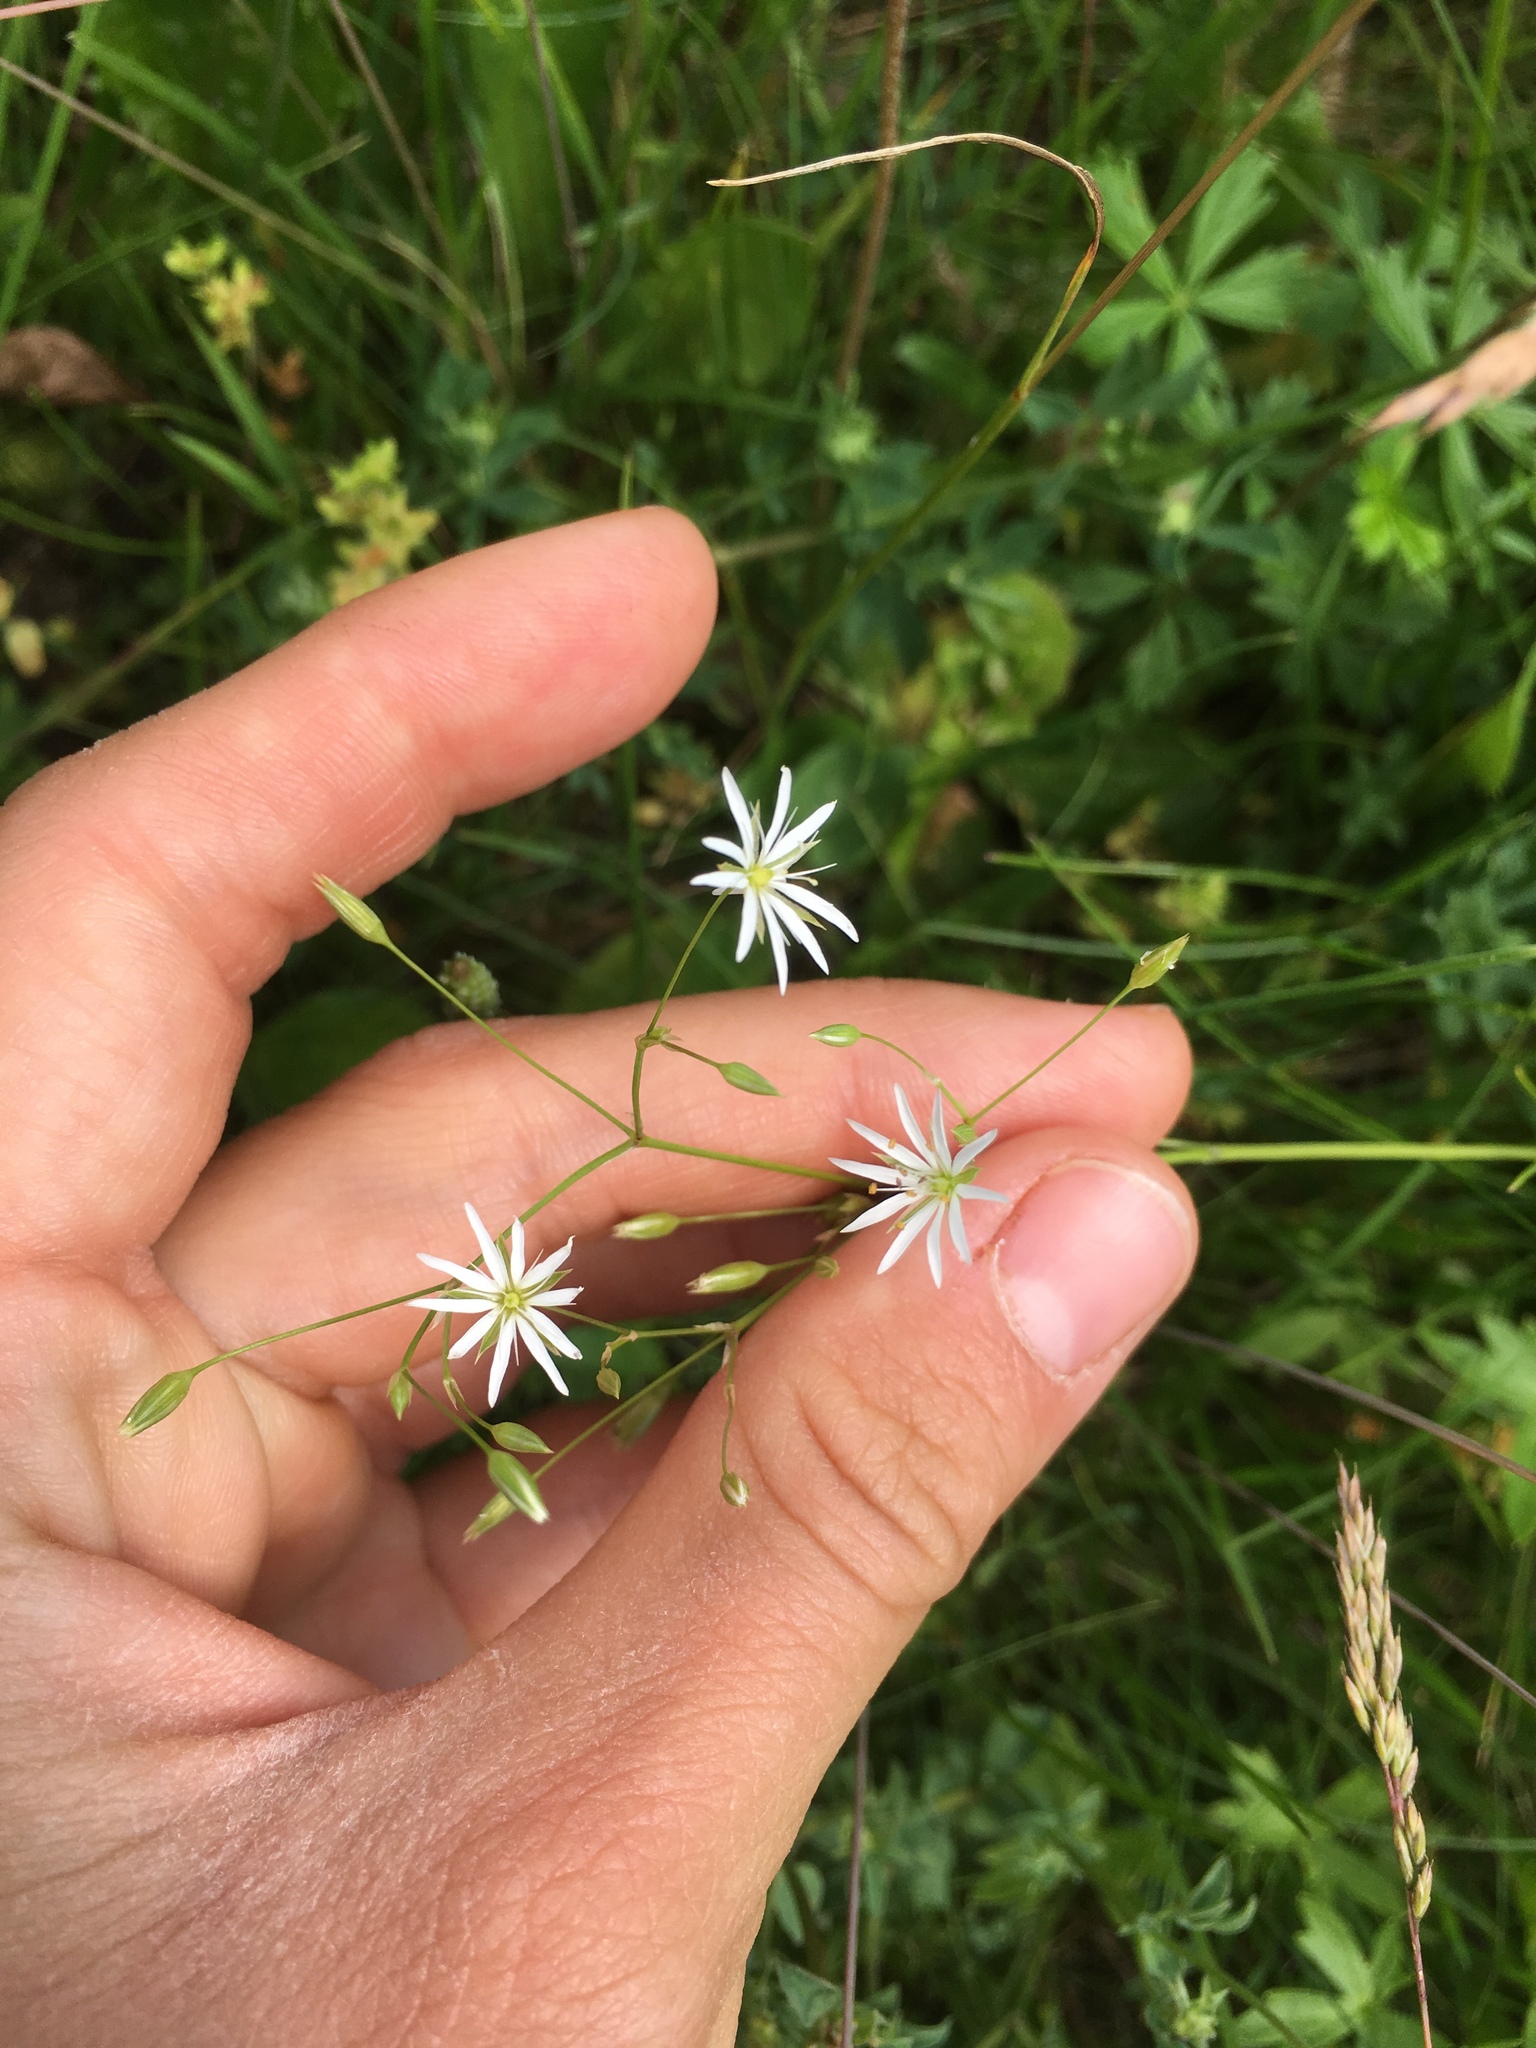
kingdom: Plantae
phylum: Tracheophyta
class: Magnoliopsida
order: Caryophyllales
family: Caryophyllaceae
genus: Stellaria
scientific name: Stellaria graminea
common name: Grass-like starwort
